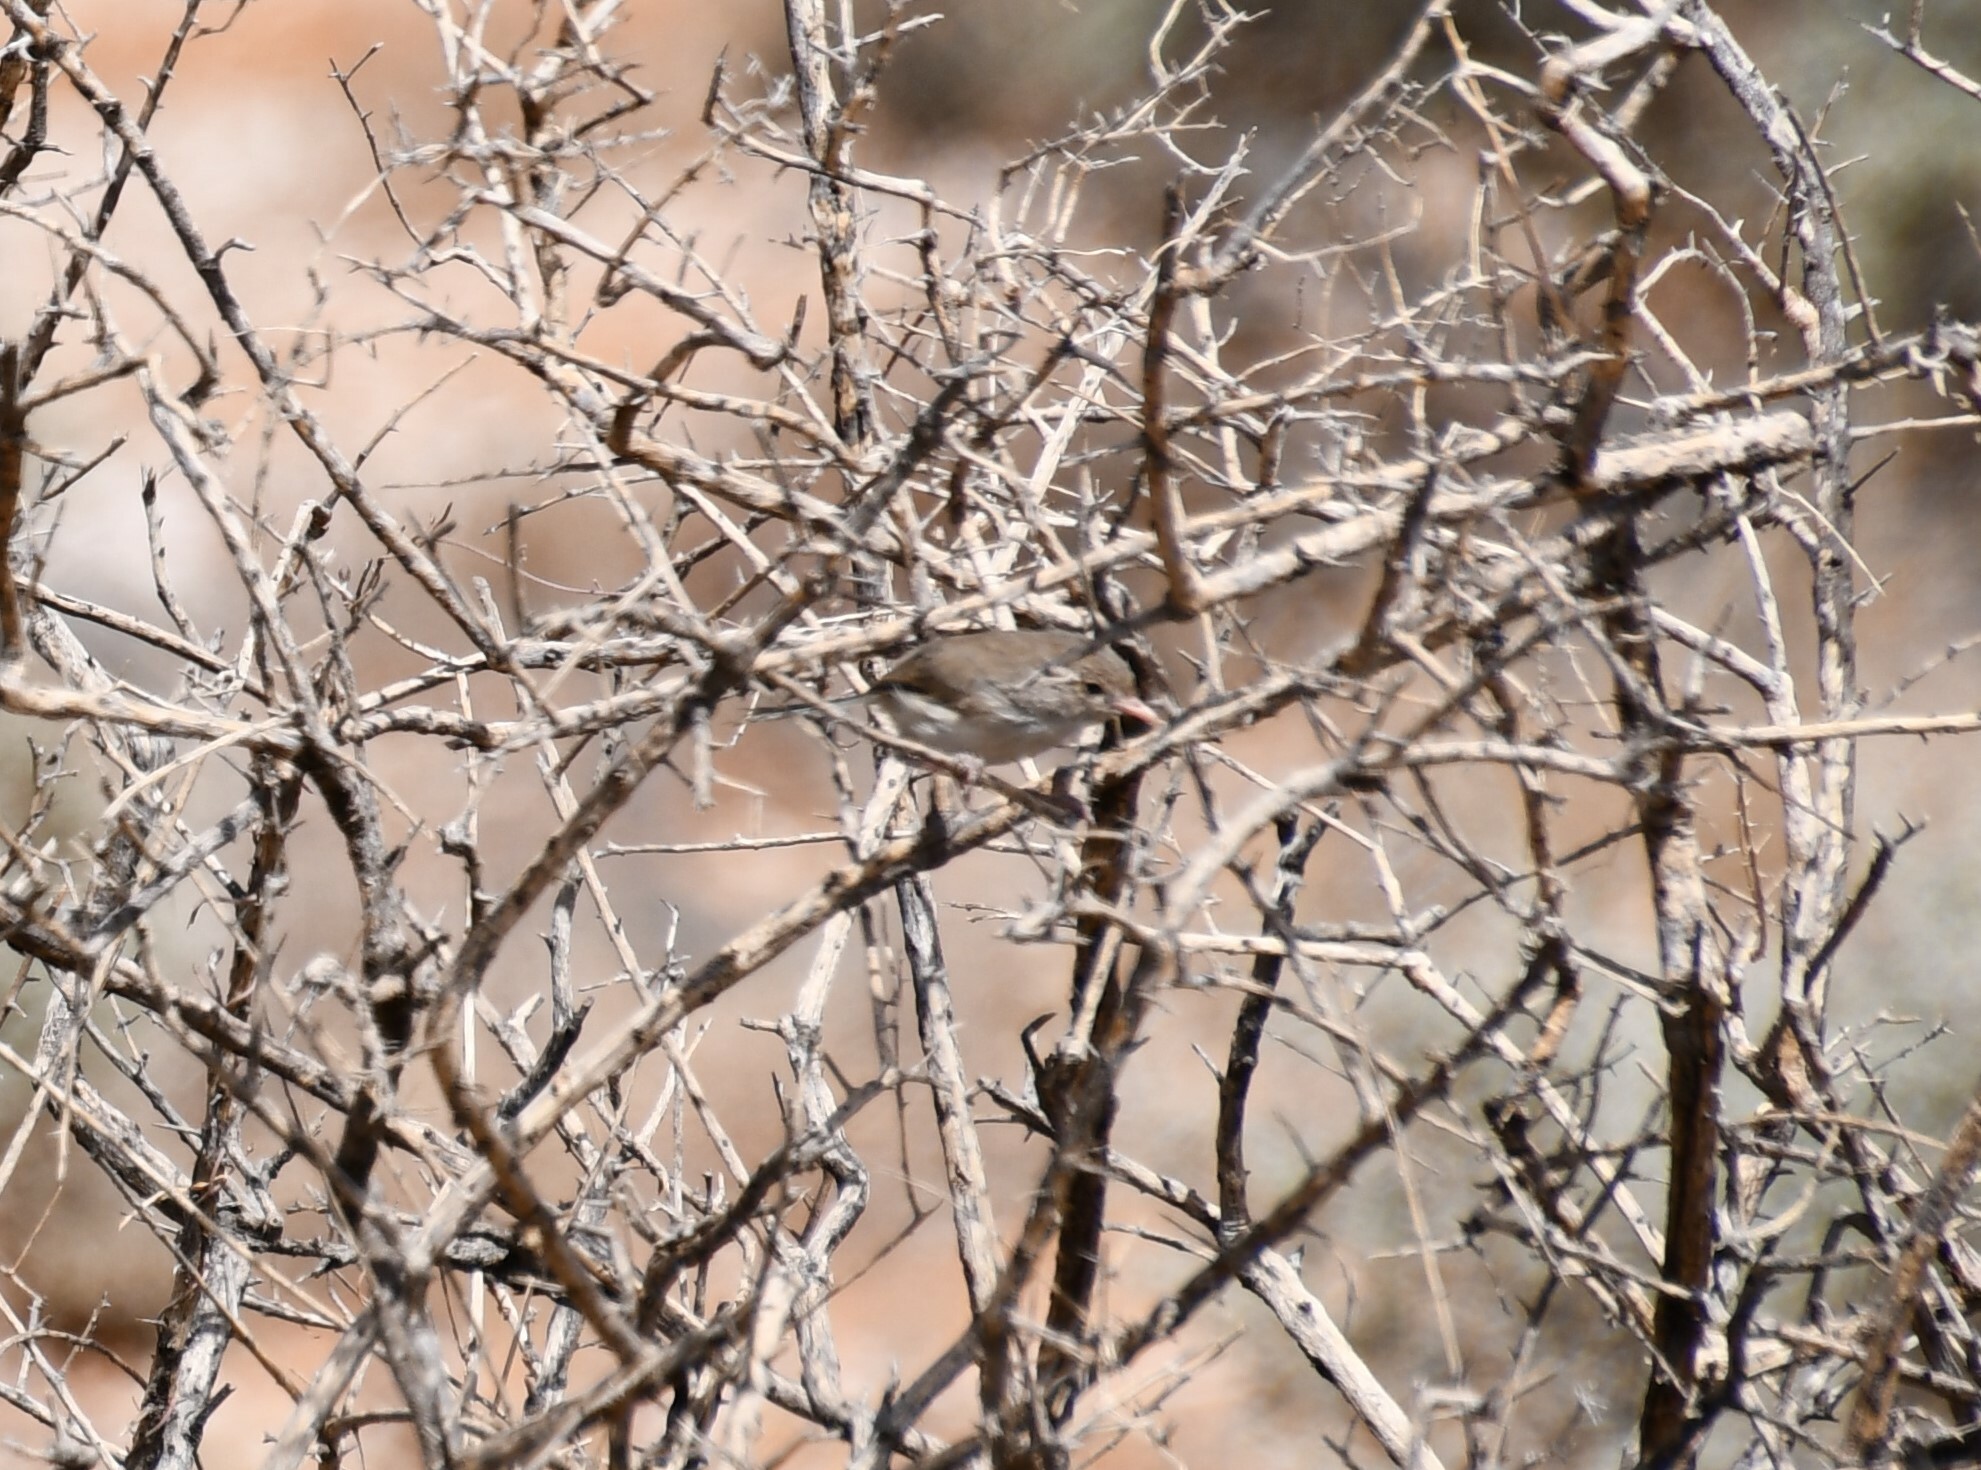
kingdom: Animalia
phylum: Chordata
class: Aves
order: Passeriformes
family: Maluridae
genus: Malurus
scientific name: Malurus leucopterus
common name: White-winged fairywren
